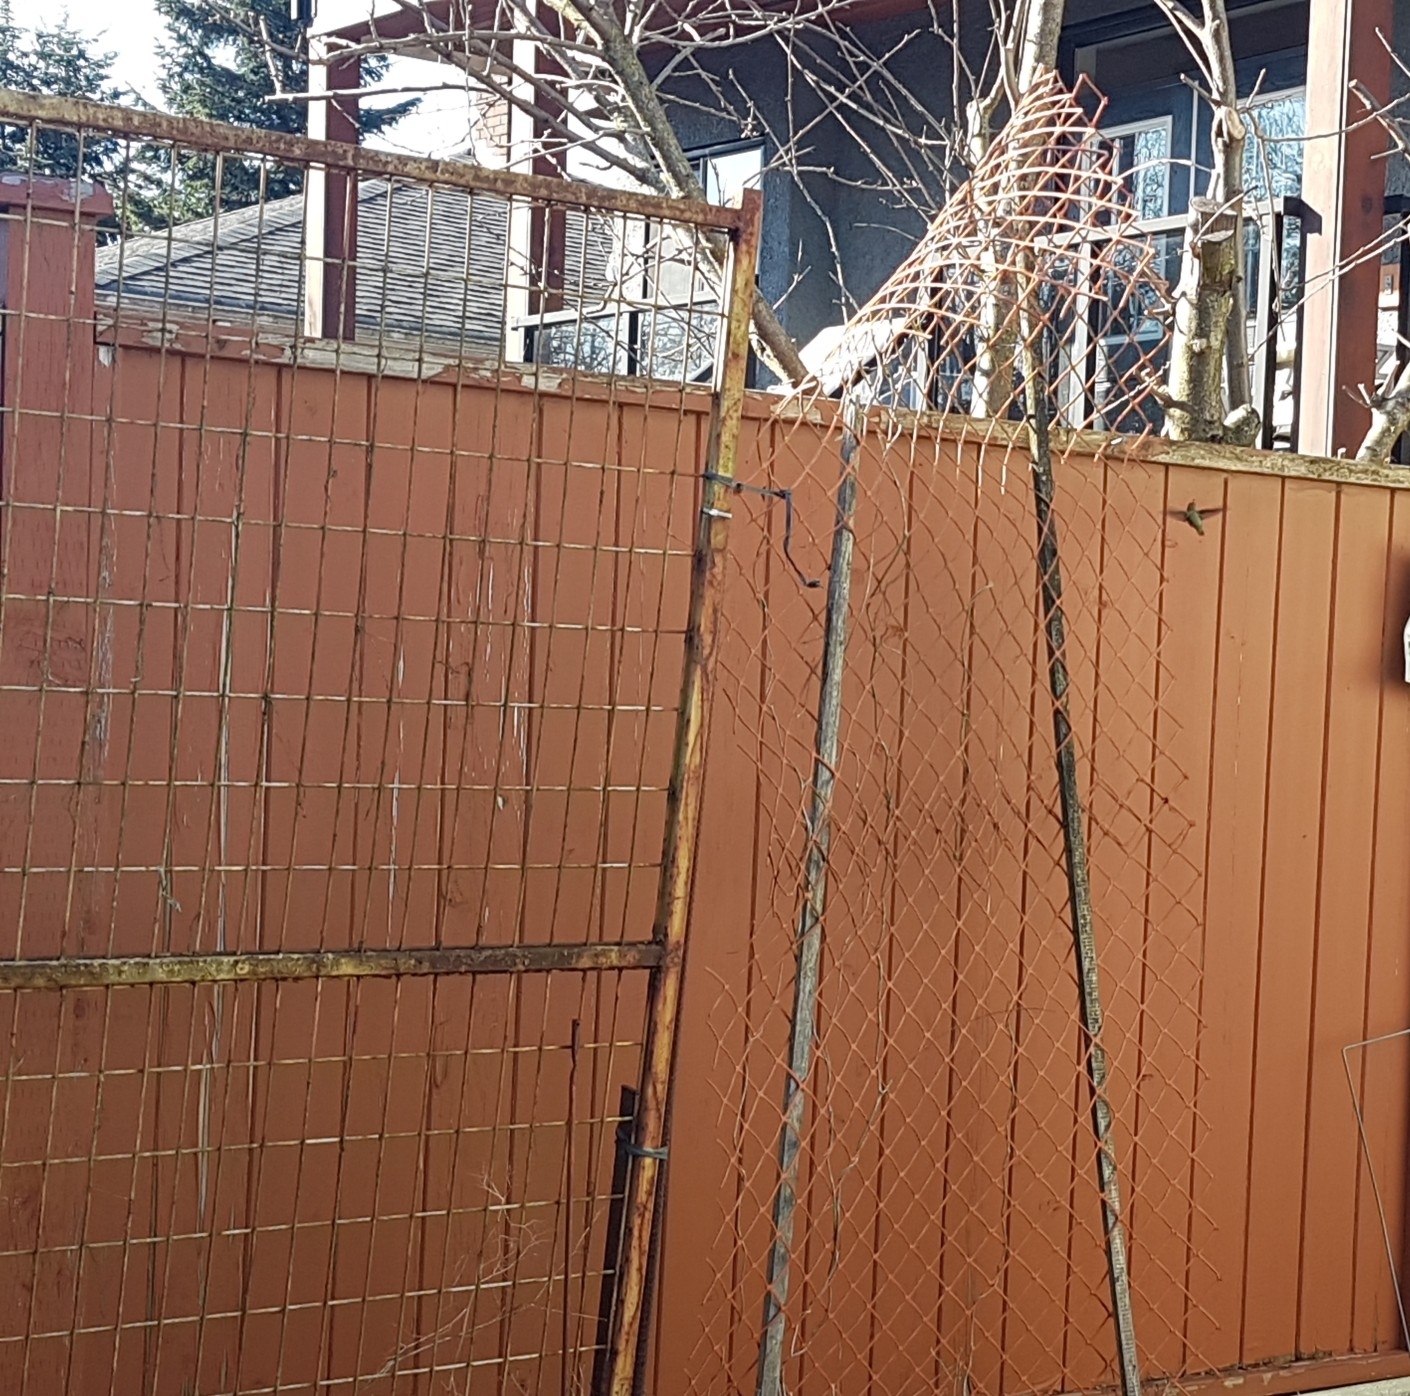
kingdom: Animalia
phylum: Chordata
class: Aves
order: Apodiformes
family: Trochilidae
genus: Calypte
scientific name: Calypte anna
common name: Anna's hummingbird
